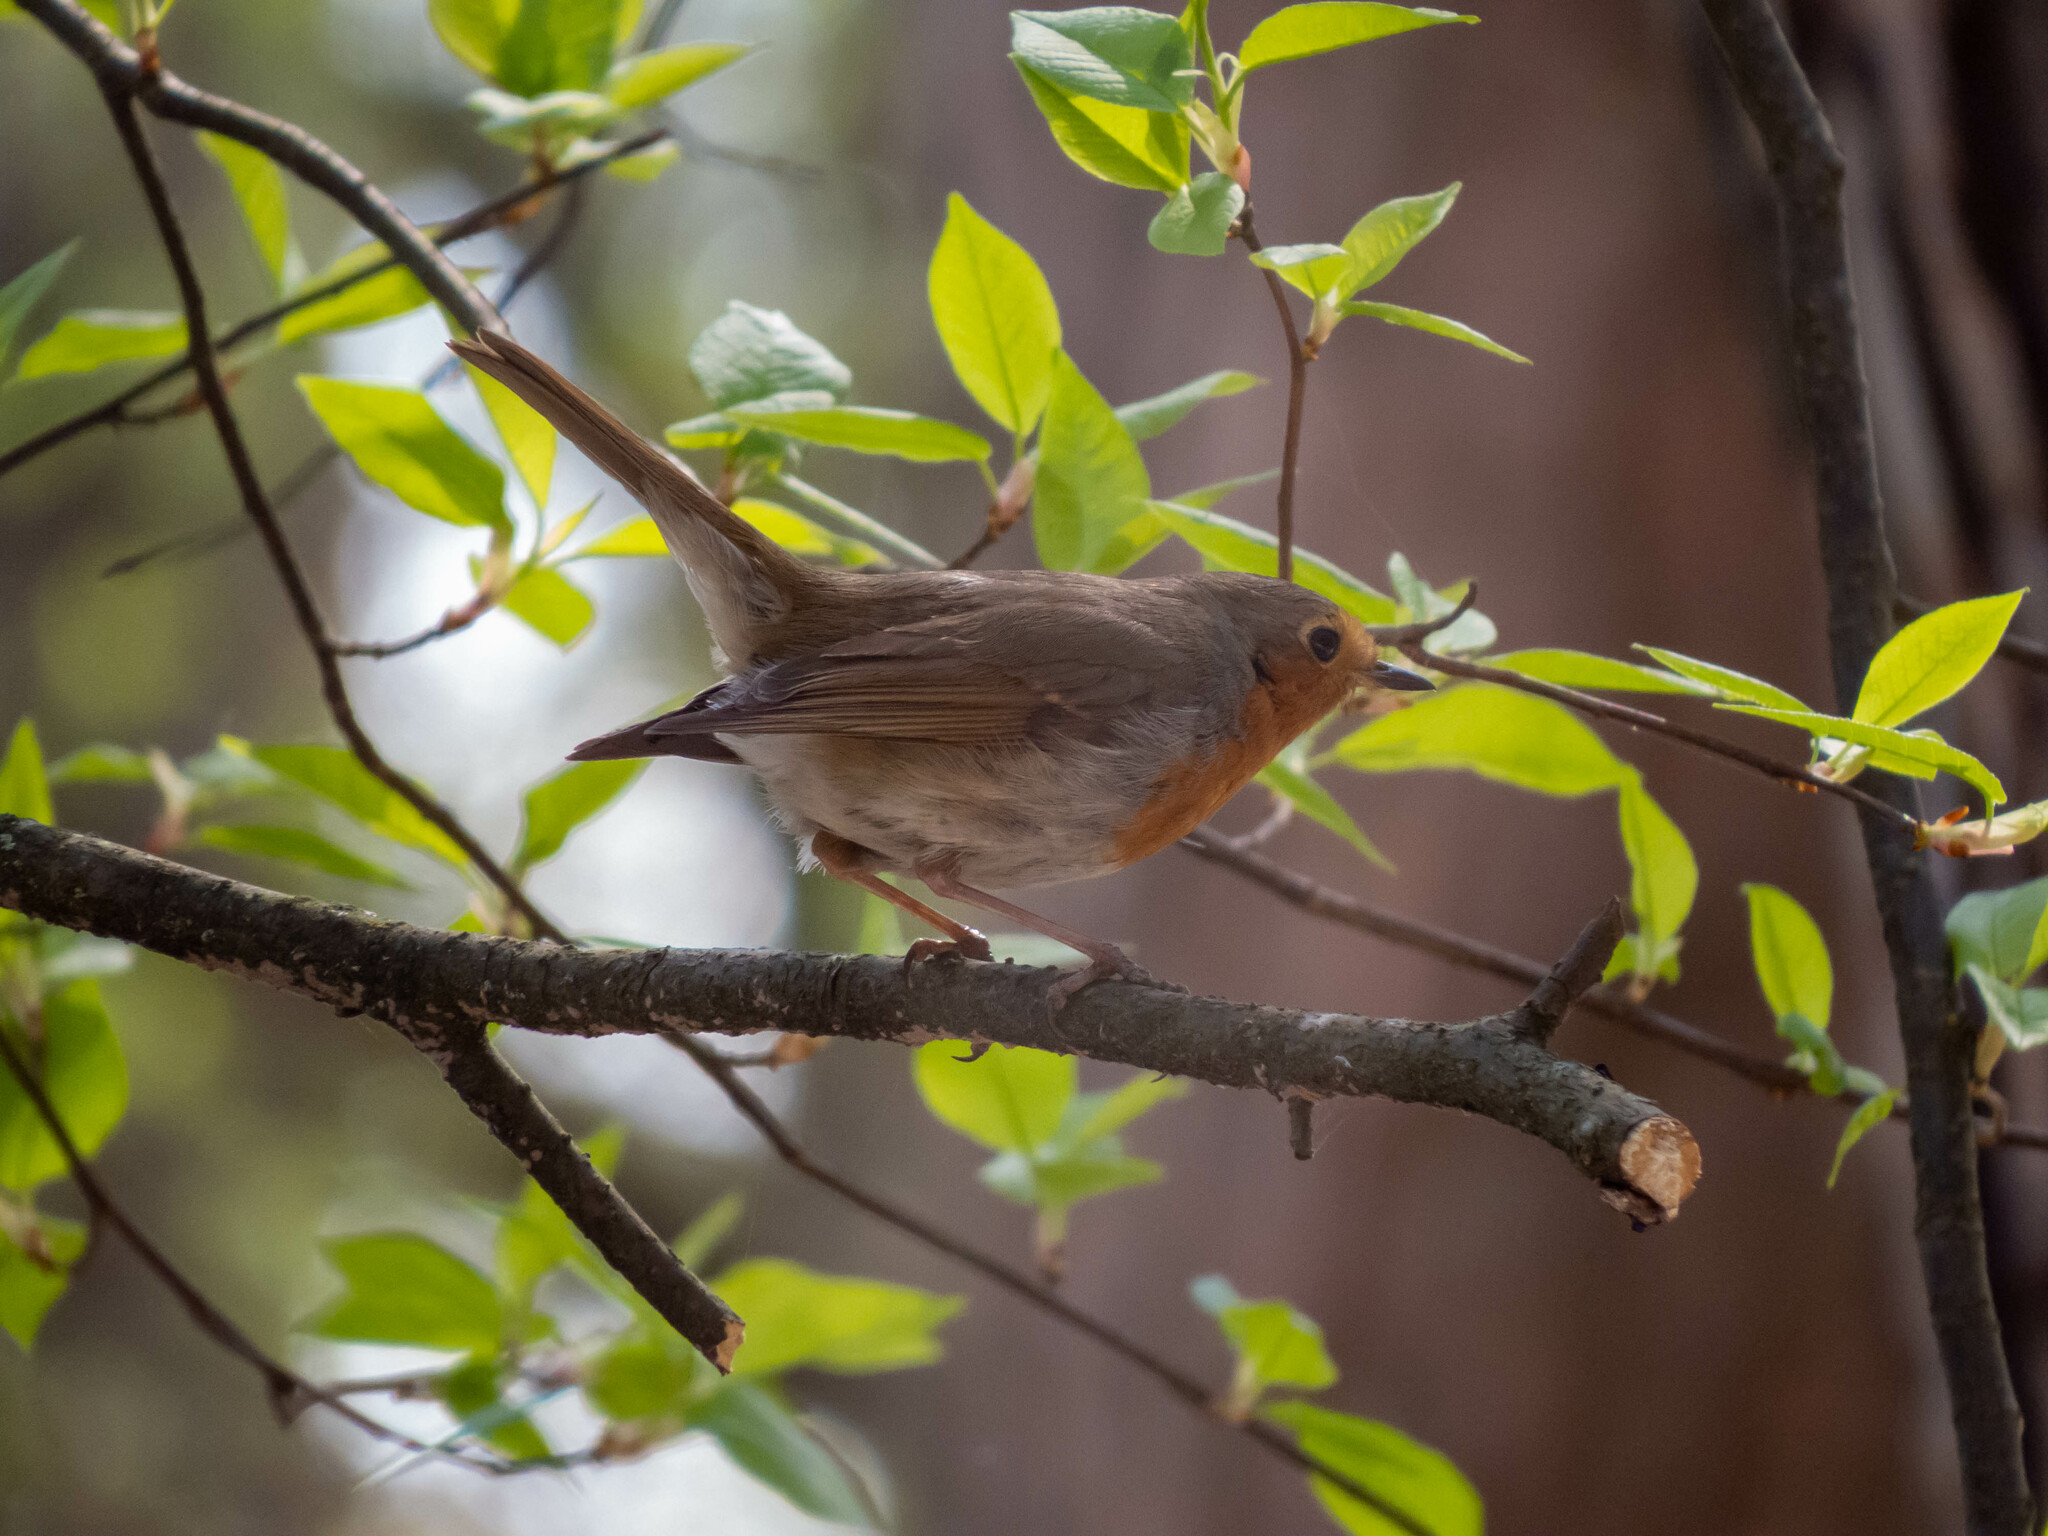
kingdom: Animalia
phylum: Chordata
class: Aves
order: Passeriformes
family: Muscicapidae
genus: Erithacus
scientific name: Erithacus rubecula
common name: European robin
